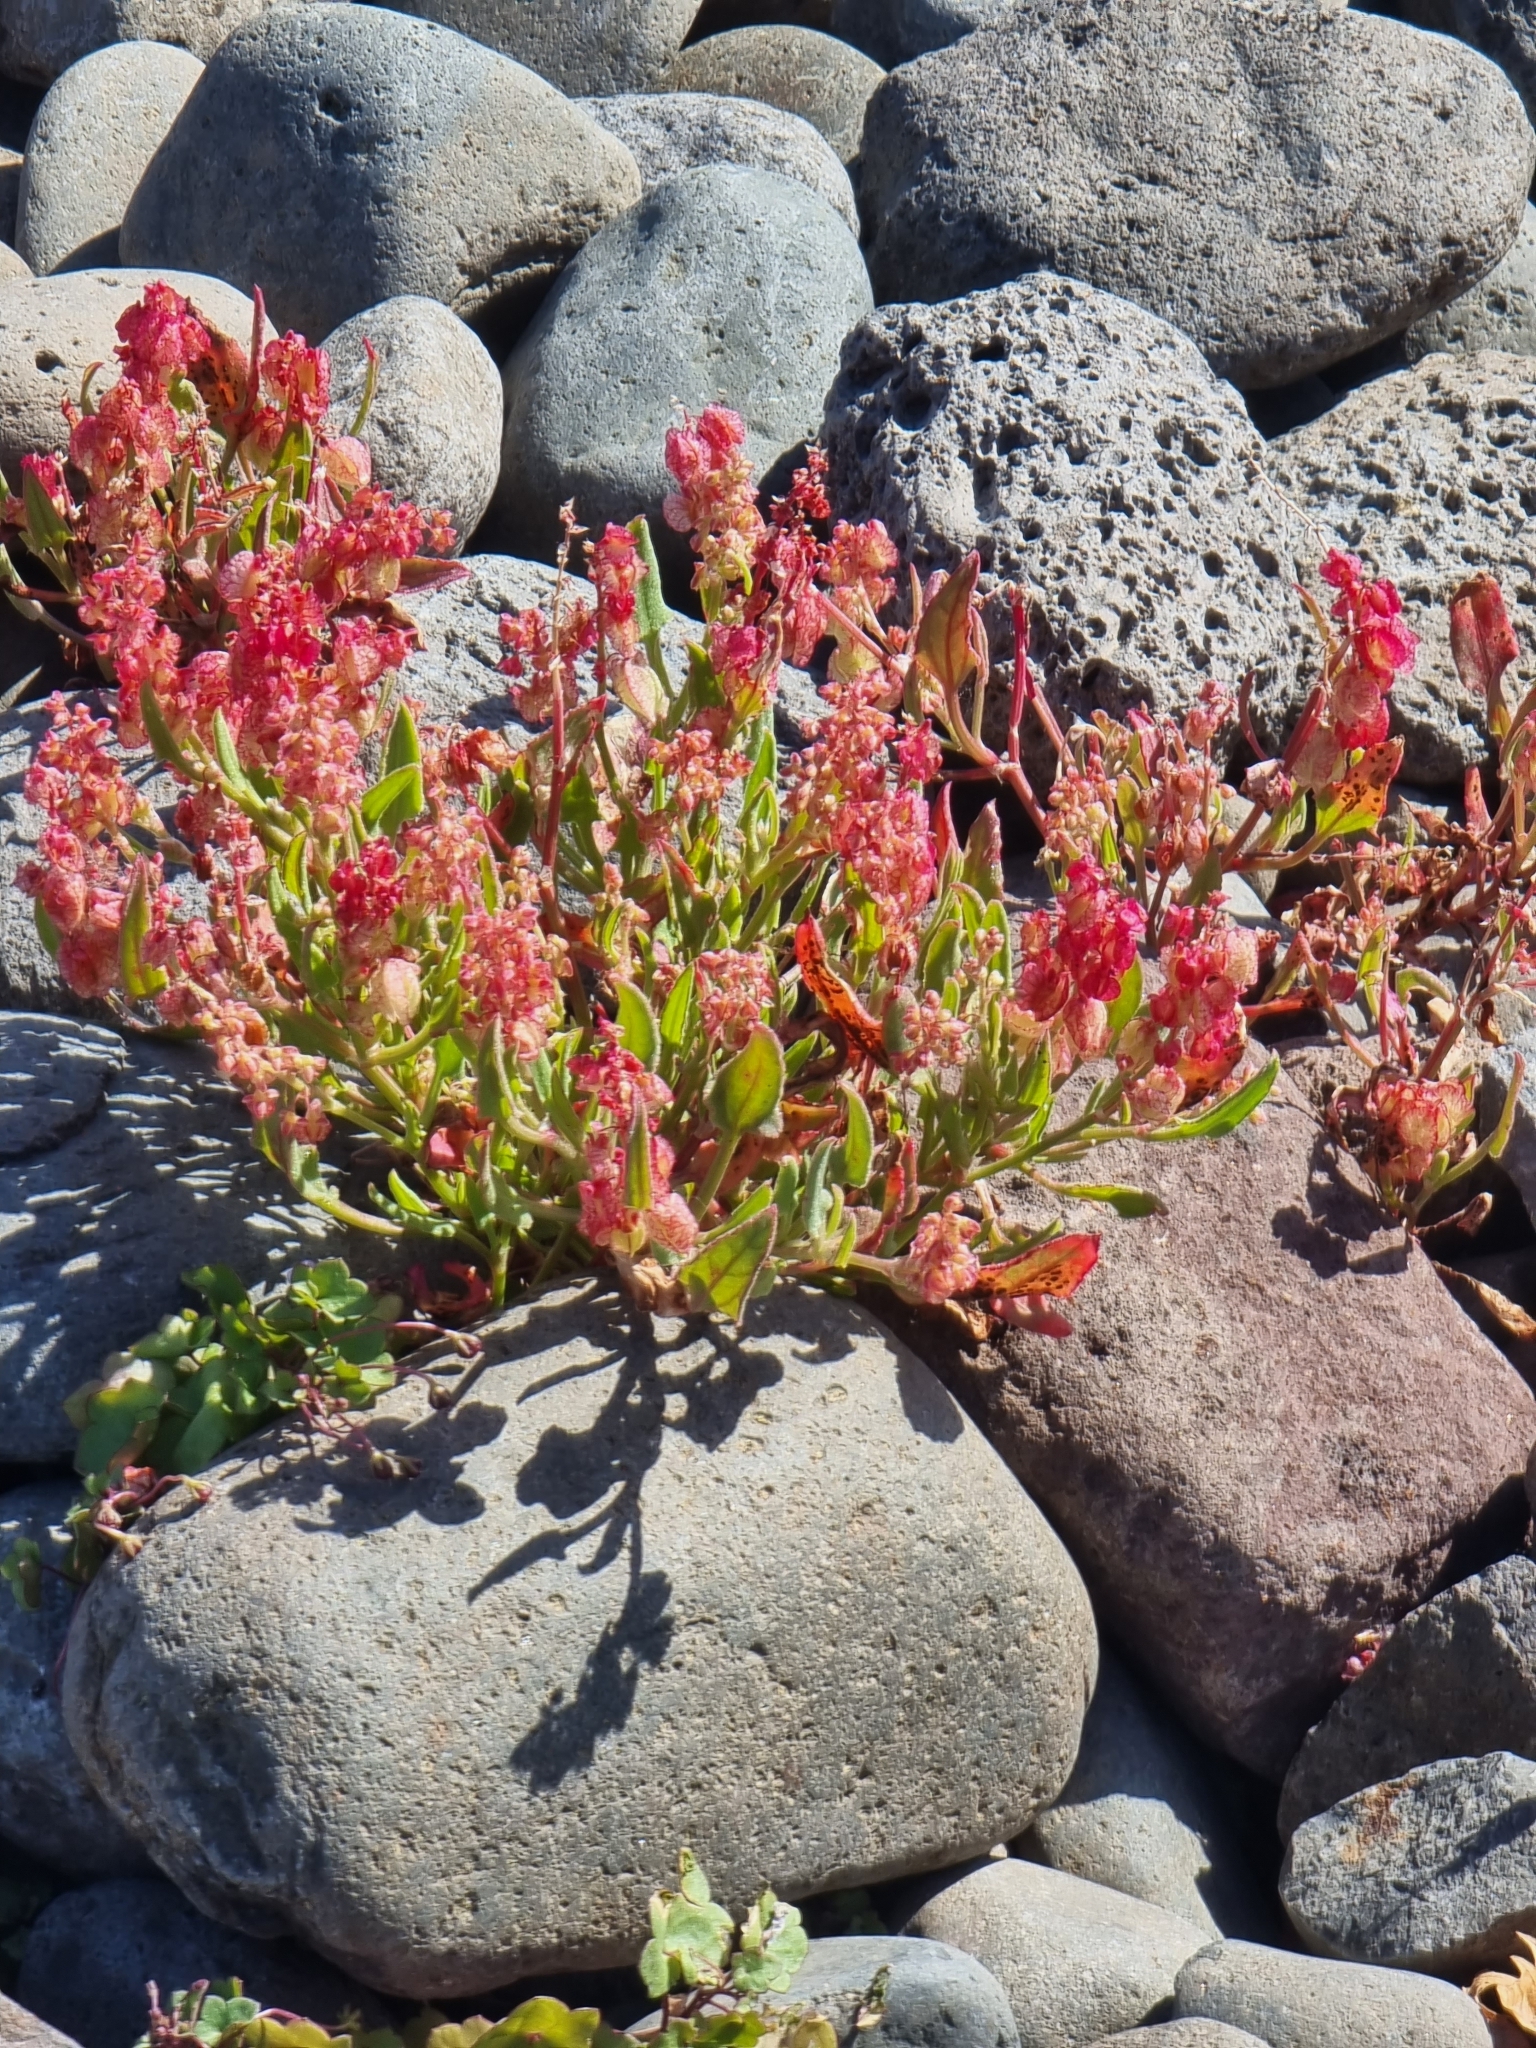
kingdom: Plantae
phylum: Tracheophyta
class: Magnoliopsida
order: Caryophyllales
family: Polygonaceae
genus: Rumex
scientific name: Rumex simpliciflorus
